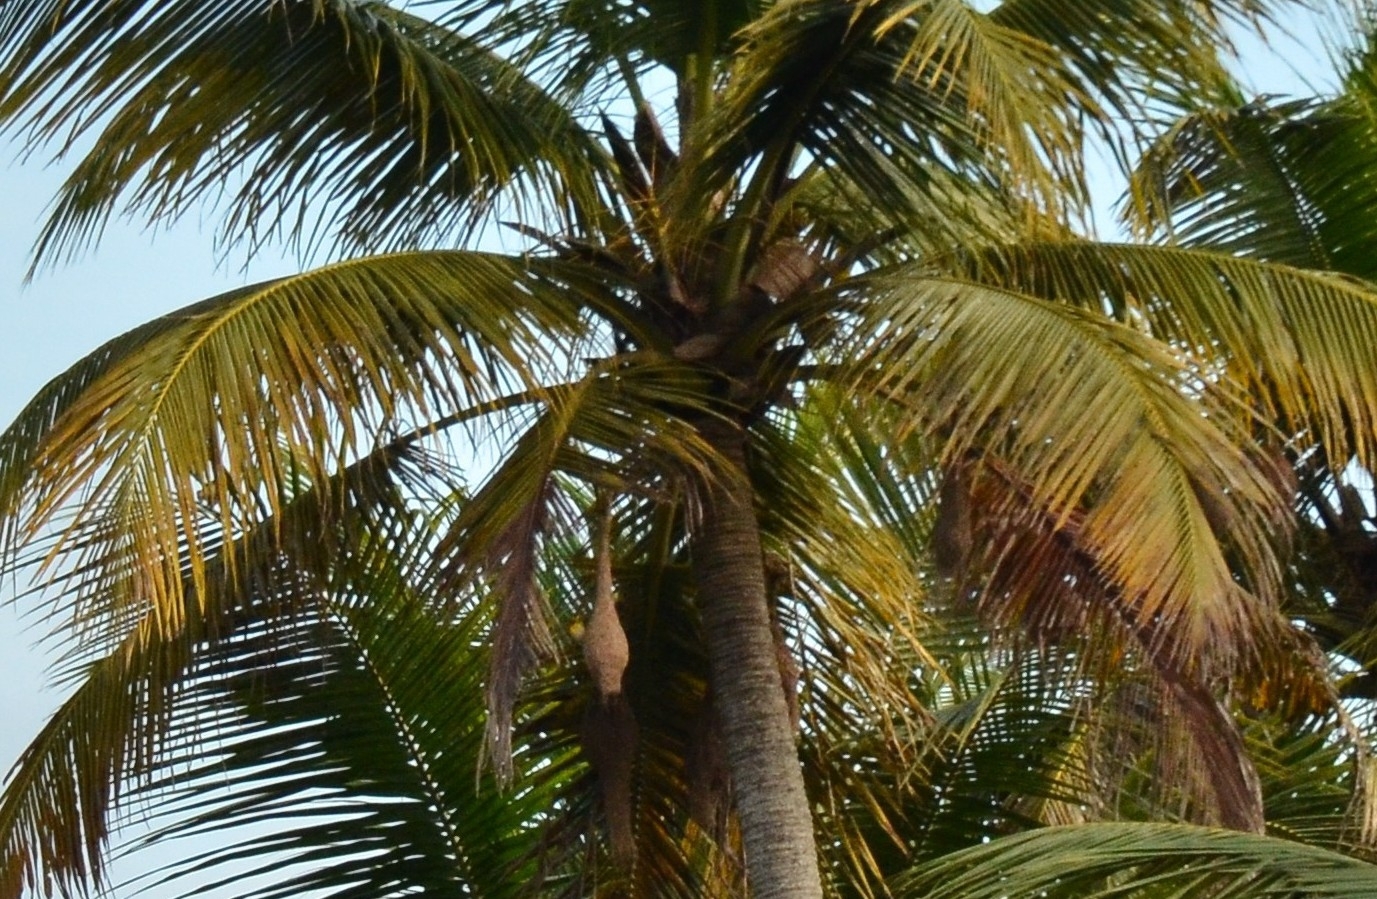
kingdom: Animalia
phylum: Chordata
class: Aves
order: Passeriformes
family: Ploceidae
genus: Ploceus
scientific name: Ploceus philippinus
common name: Baya weaver
